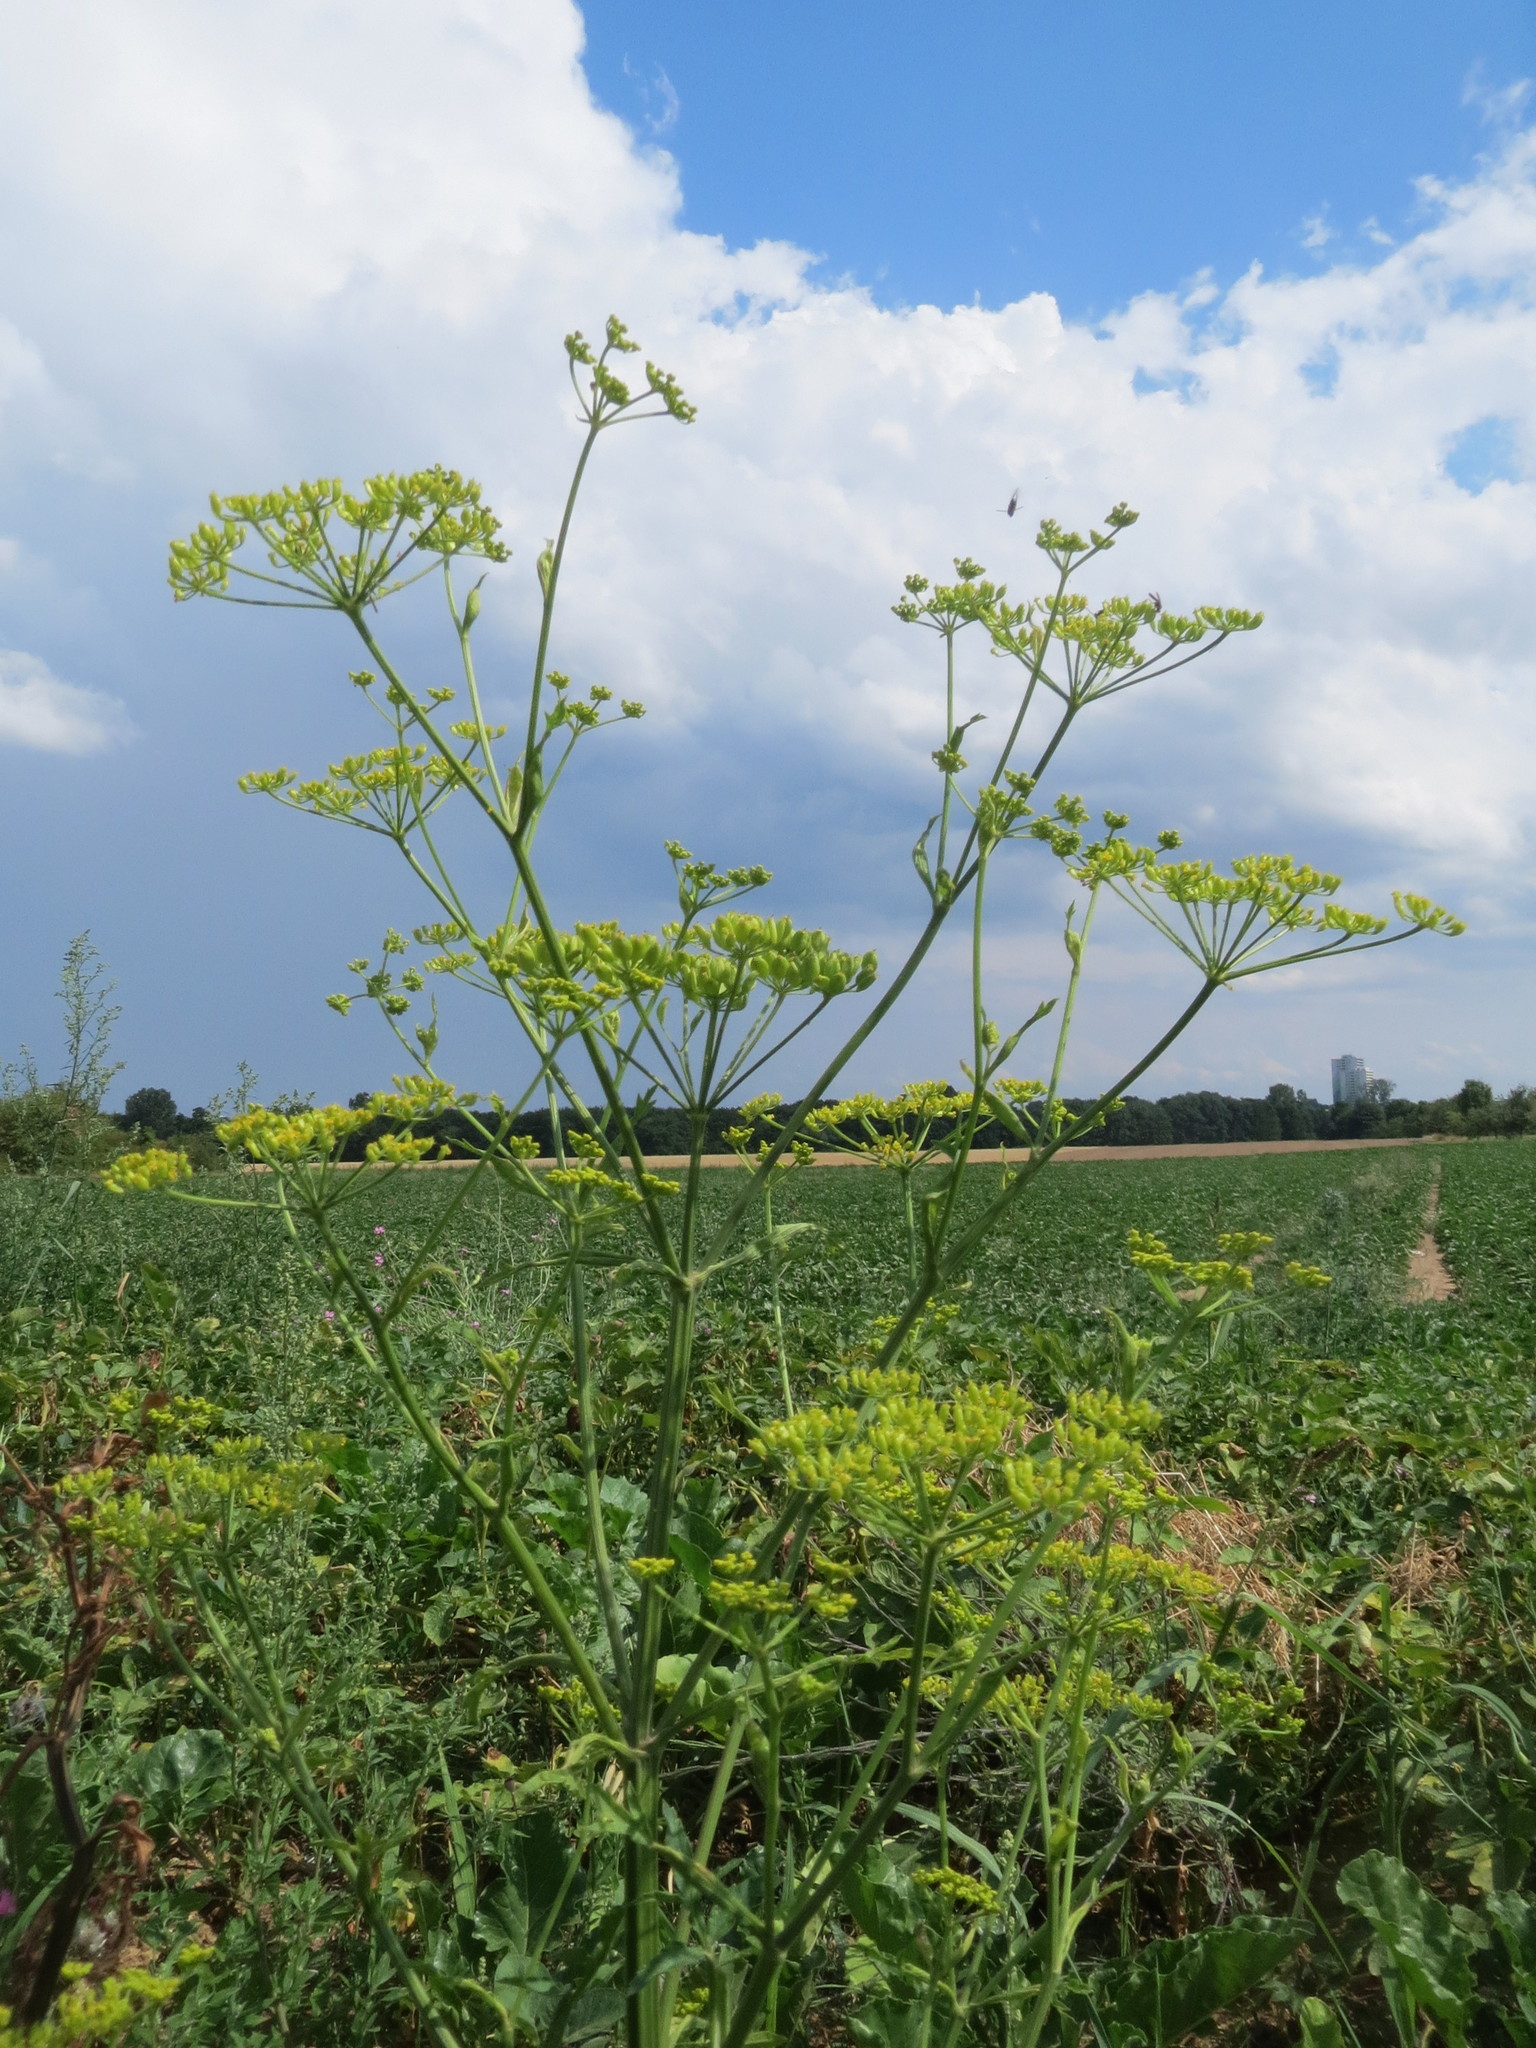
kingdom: Plantae
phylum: Tracheophyta
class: Magnoliopsida
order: Apiales
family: Apiaceae
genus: Pastinaca
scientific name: Pastinaca sativa
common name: Wild parsnip
